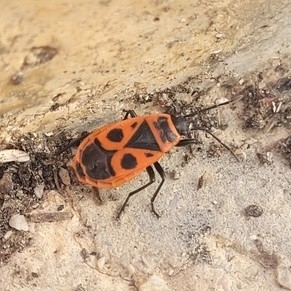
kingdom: Animalia
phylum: Arthropoda
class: Insecta
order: Hemiptera
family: Pyrrhocoridae
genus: Pyrrhocoris
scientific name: Pyrrhocoris apterus
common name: Firebug
